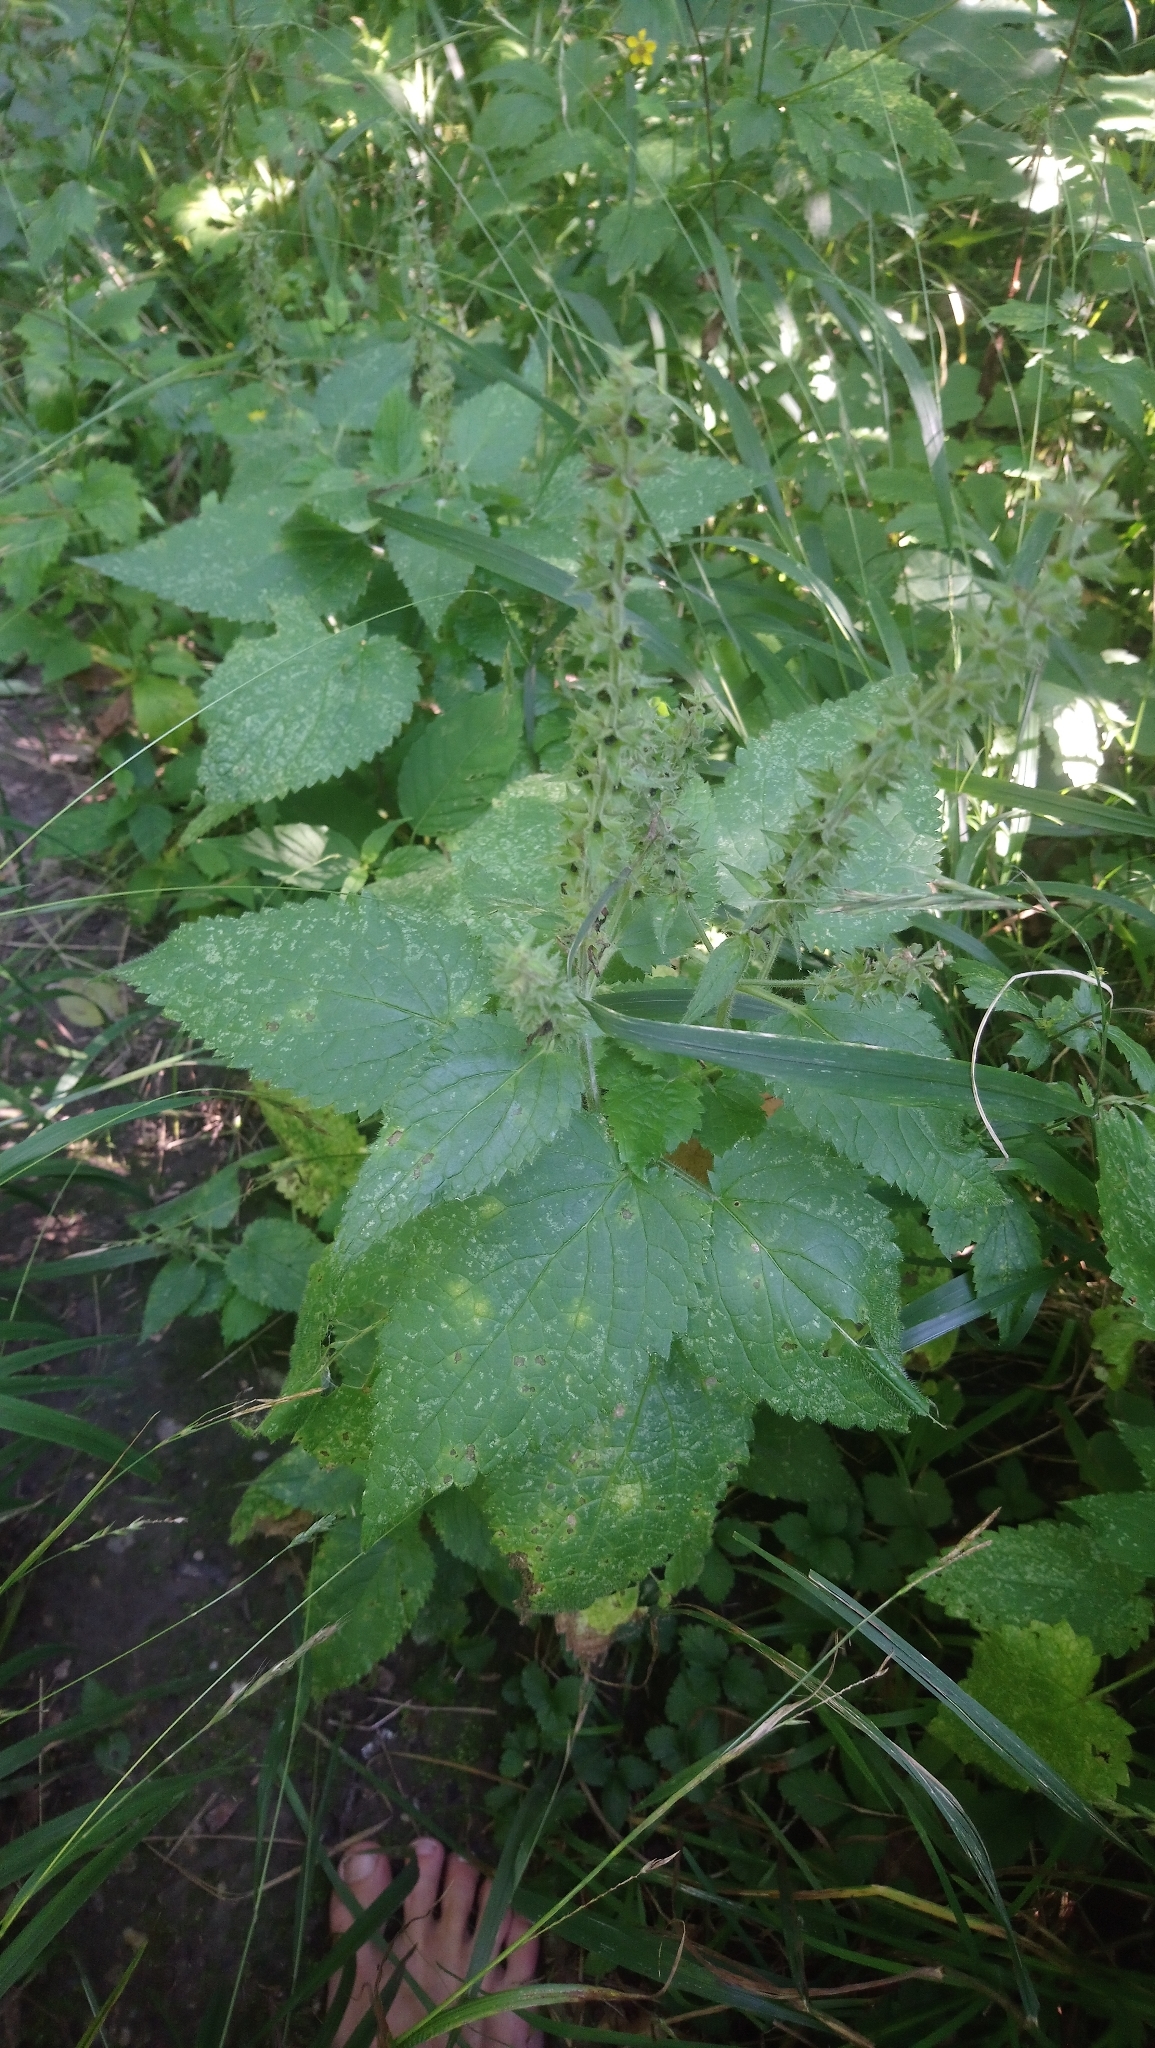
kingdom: Plantae
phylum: Tracheophyta
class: Magnoliopsida
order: Lamiales
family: Lamiaceae
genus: Stachys
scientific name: Stachys sylvatica
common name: Hedge woundwort
